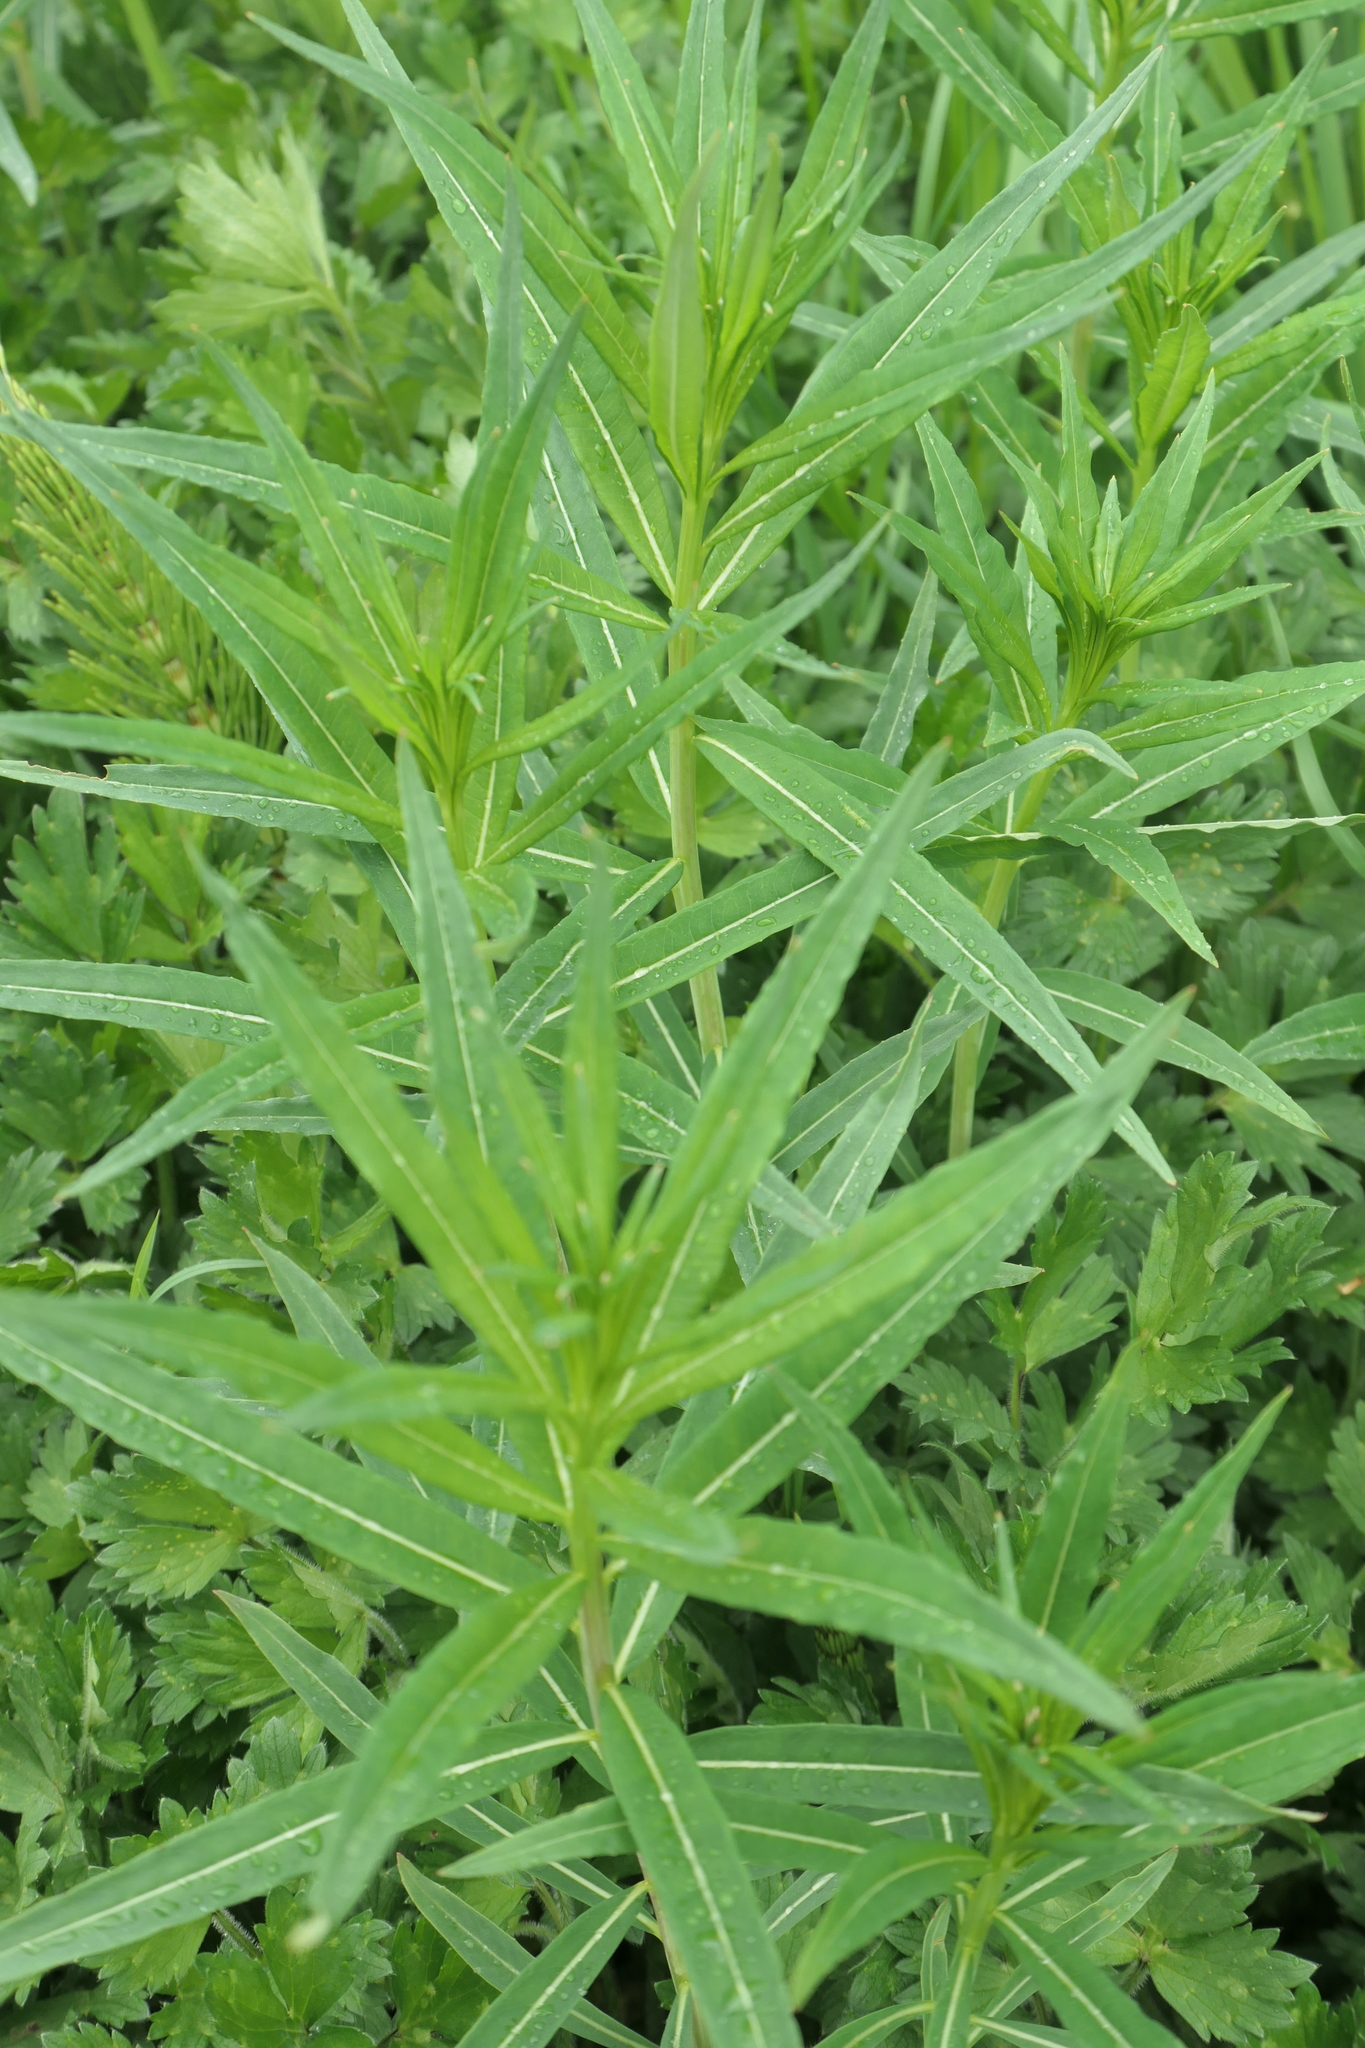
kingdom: Plantae
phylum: Tracheophyta
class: Magnoliopsida
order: Myrtales
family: Onagraceae
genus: Chamaenerion
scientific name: Chamaenerion angustifolium
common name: Fireweed
